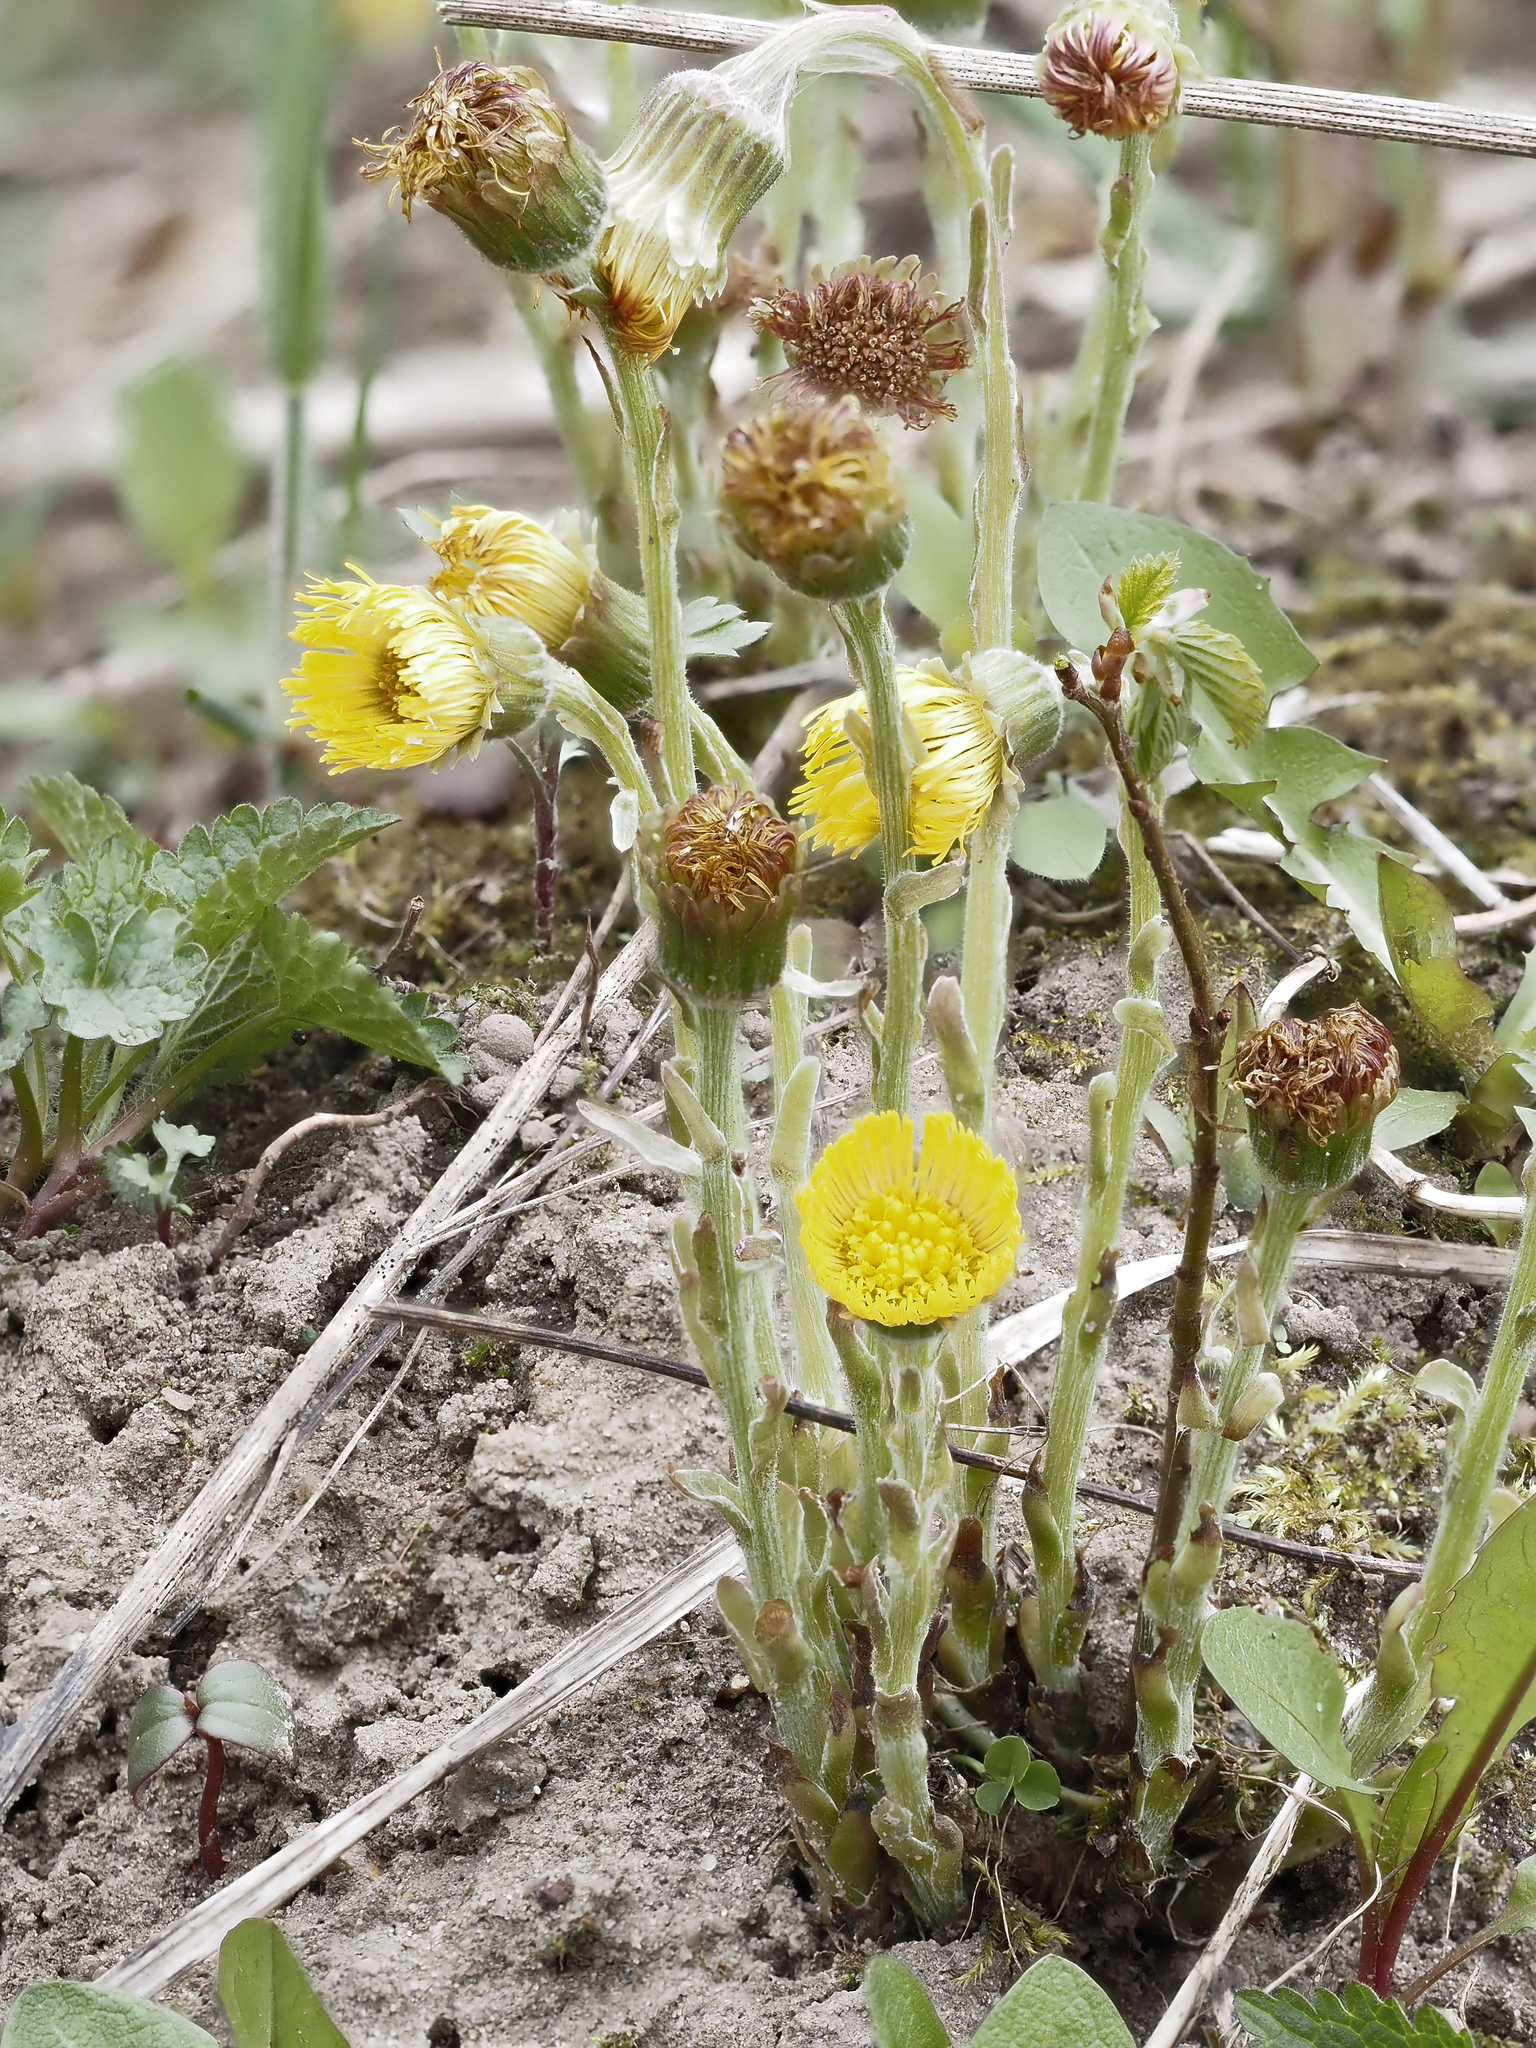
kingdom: Plantae
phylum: Tracheophyta
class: Magnoliopsida
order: Asterales
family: Asteraceae
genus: Tussilago
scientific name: Tussilago farfara
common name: Coltsfoot
